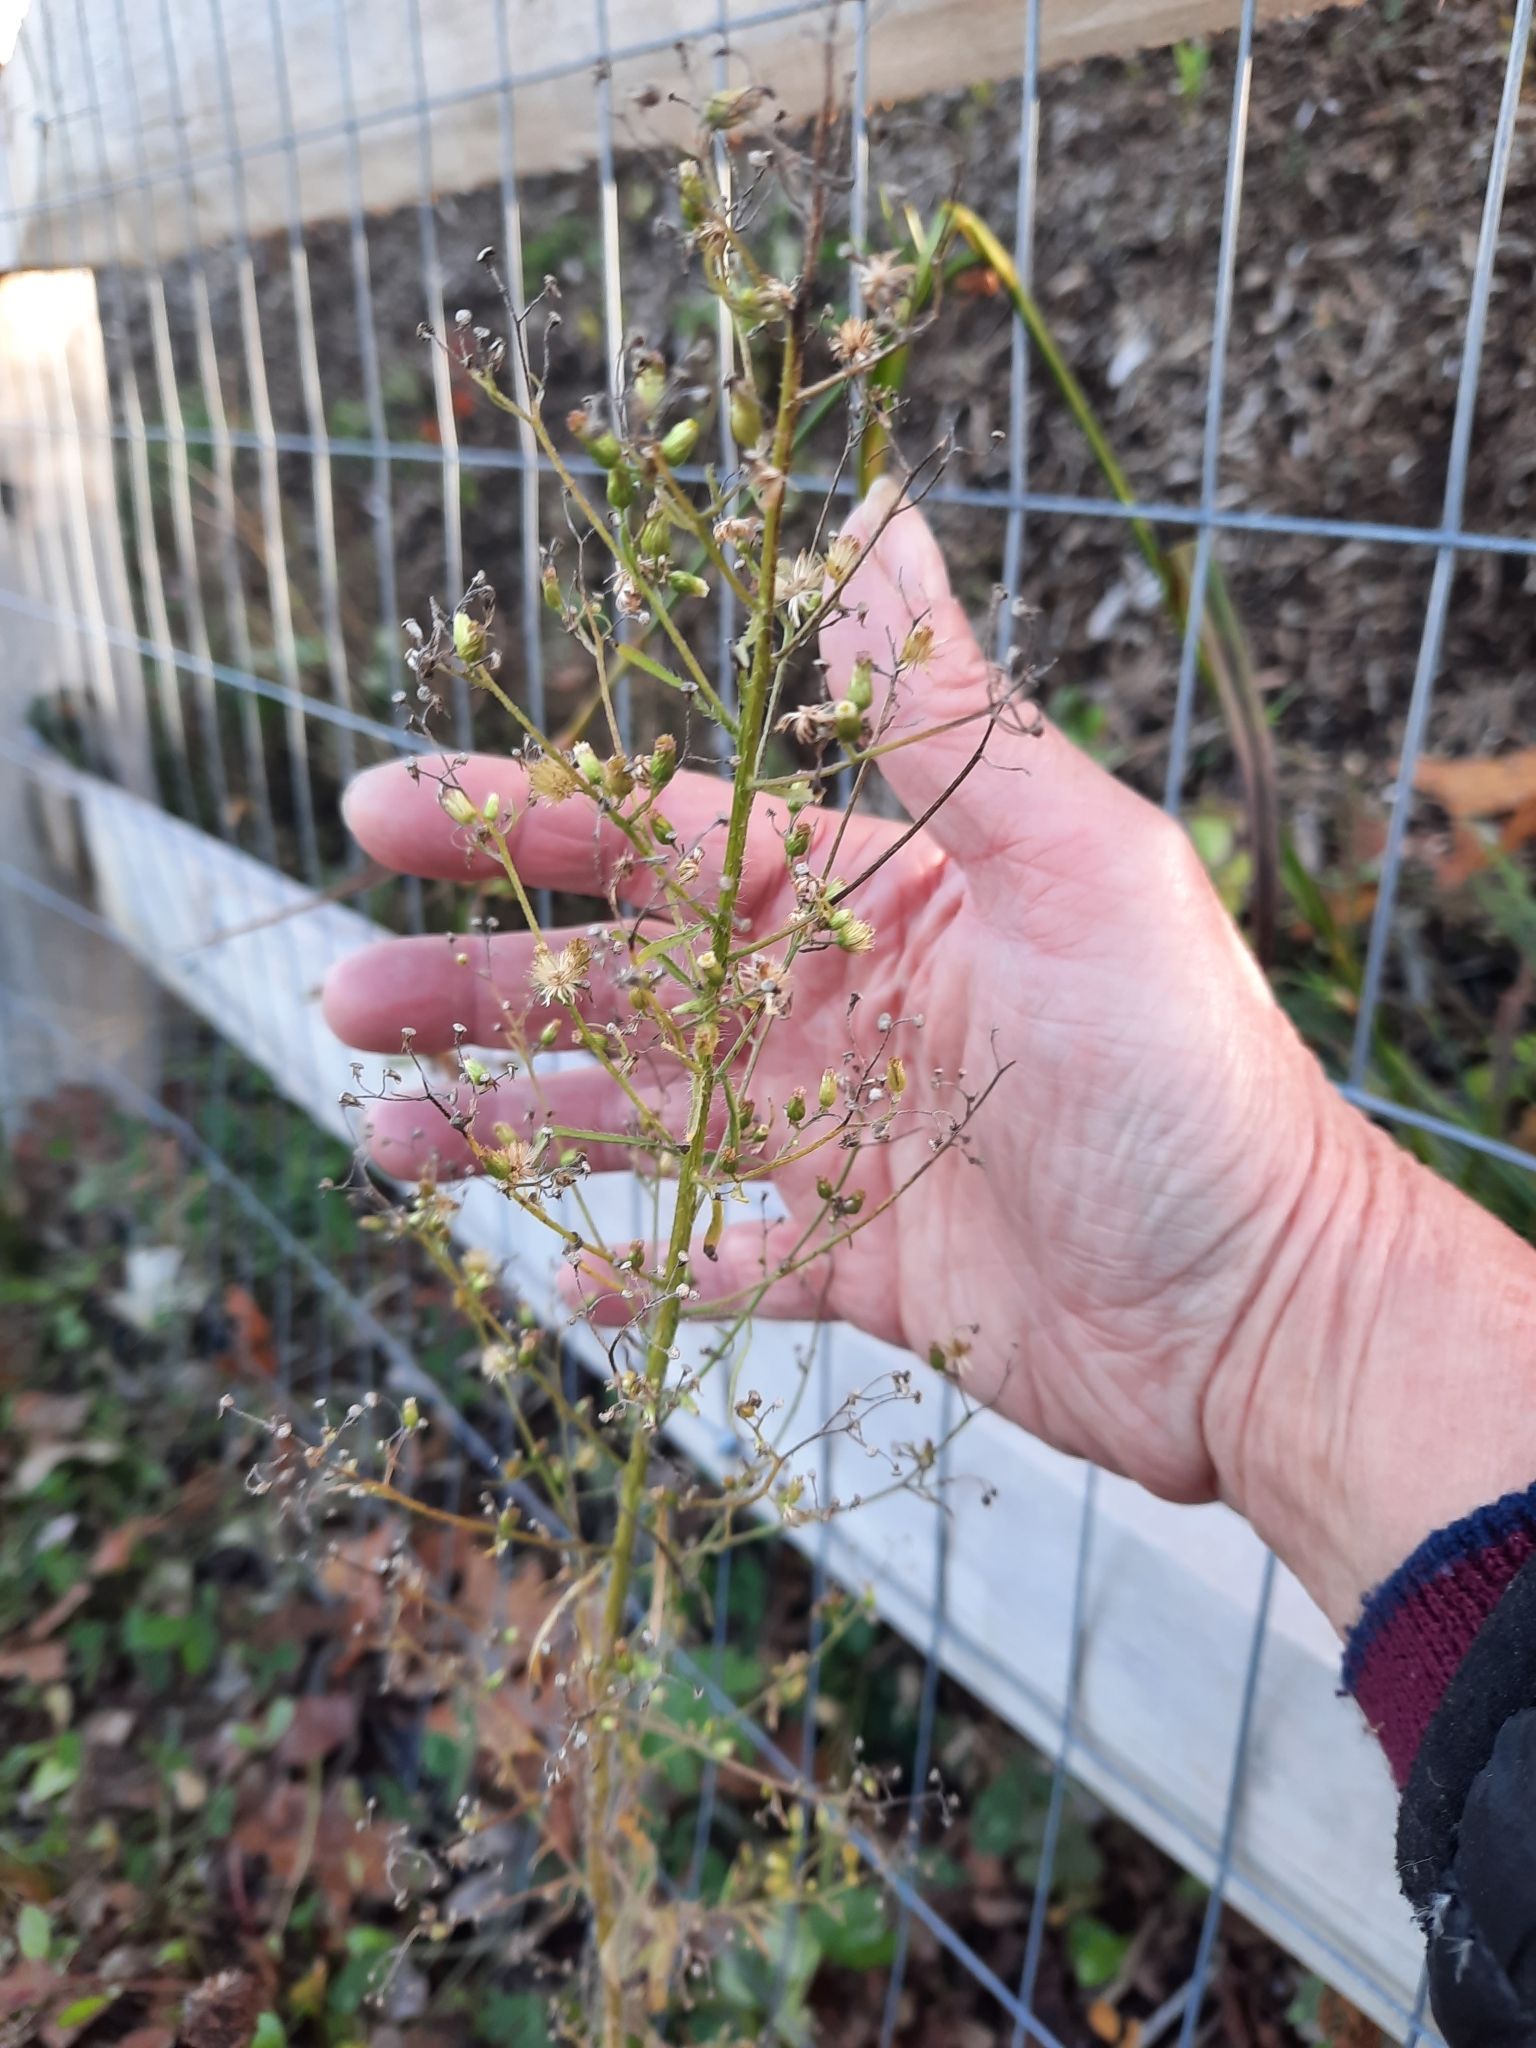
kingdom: Plantae
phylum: Tracheophyta
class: Magnoliopsida
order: Asterales
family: Asteraceae
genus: Erigeron
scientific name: Erigeron canadensis
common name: Canadian fleabane
